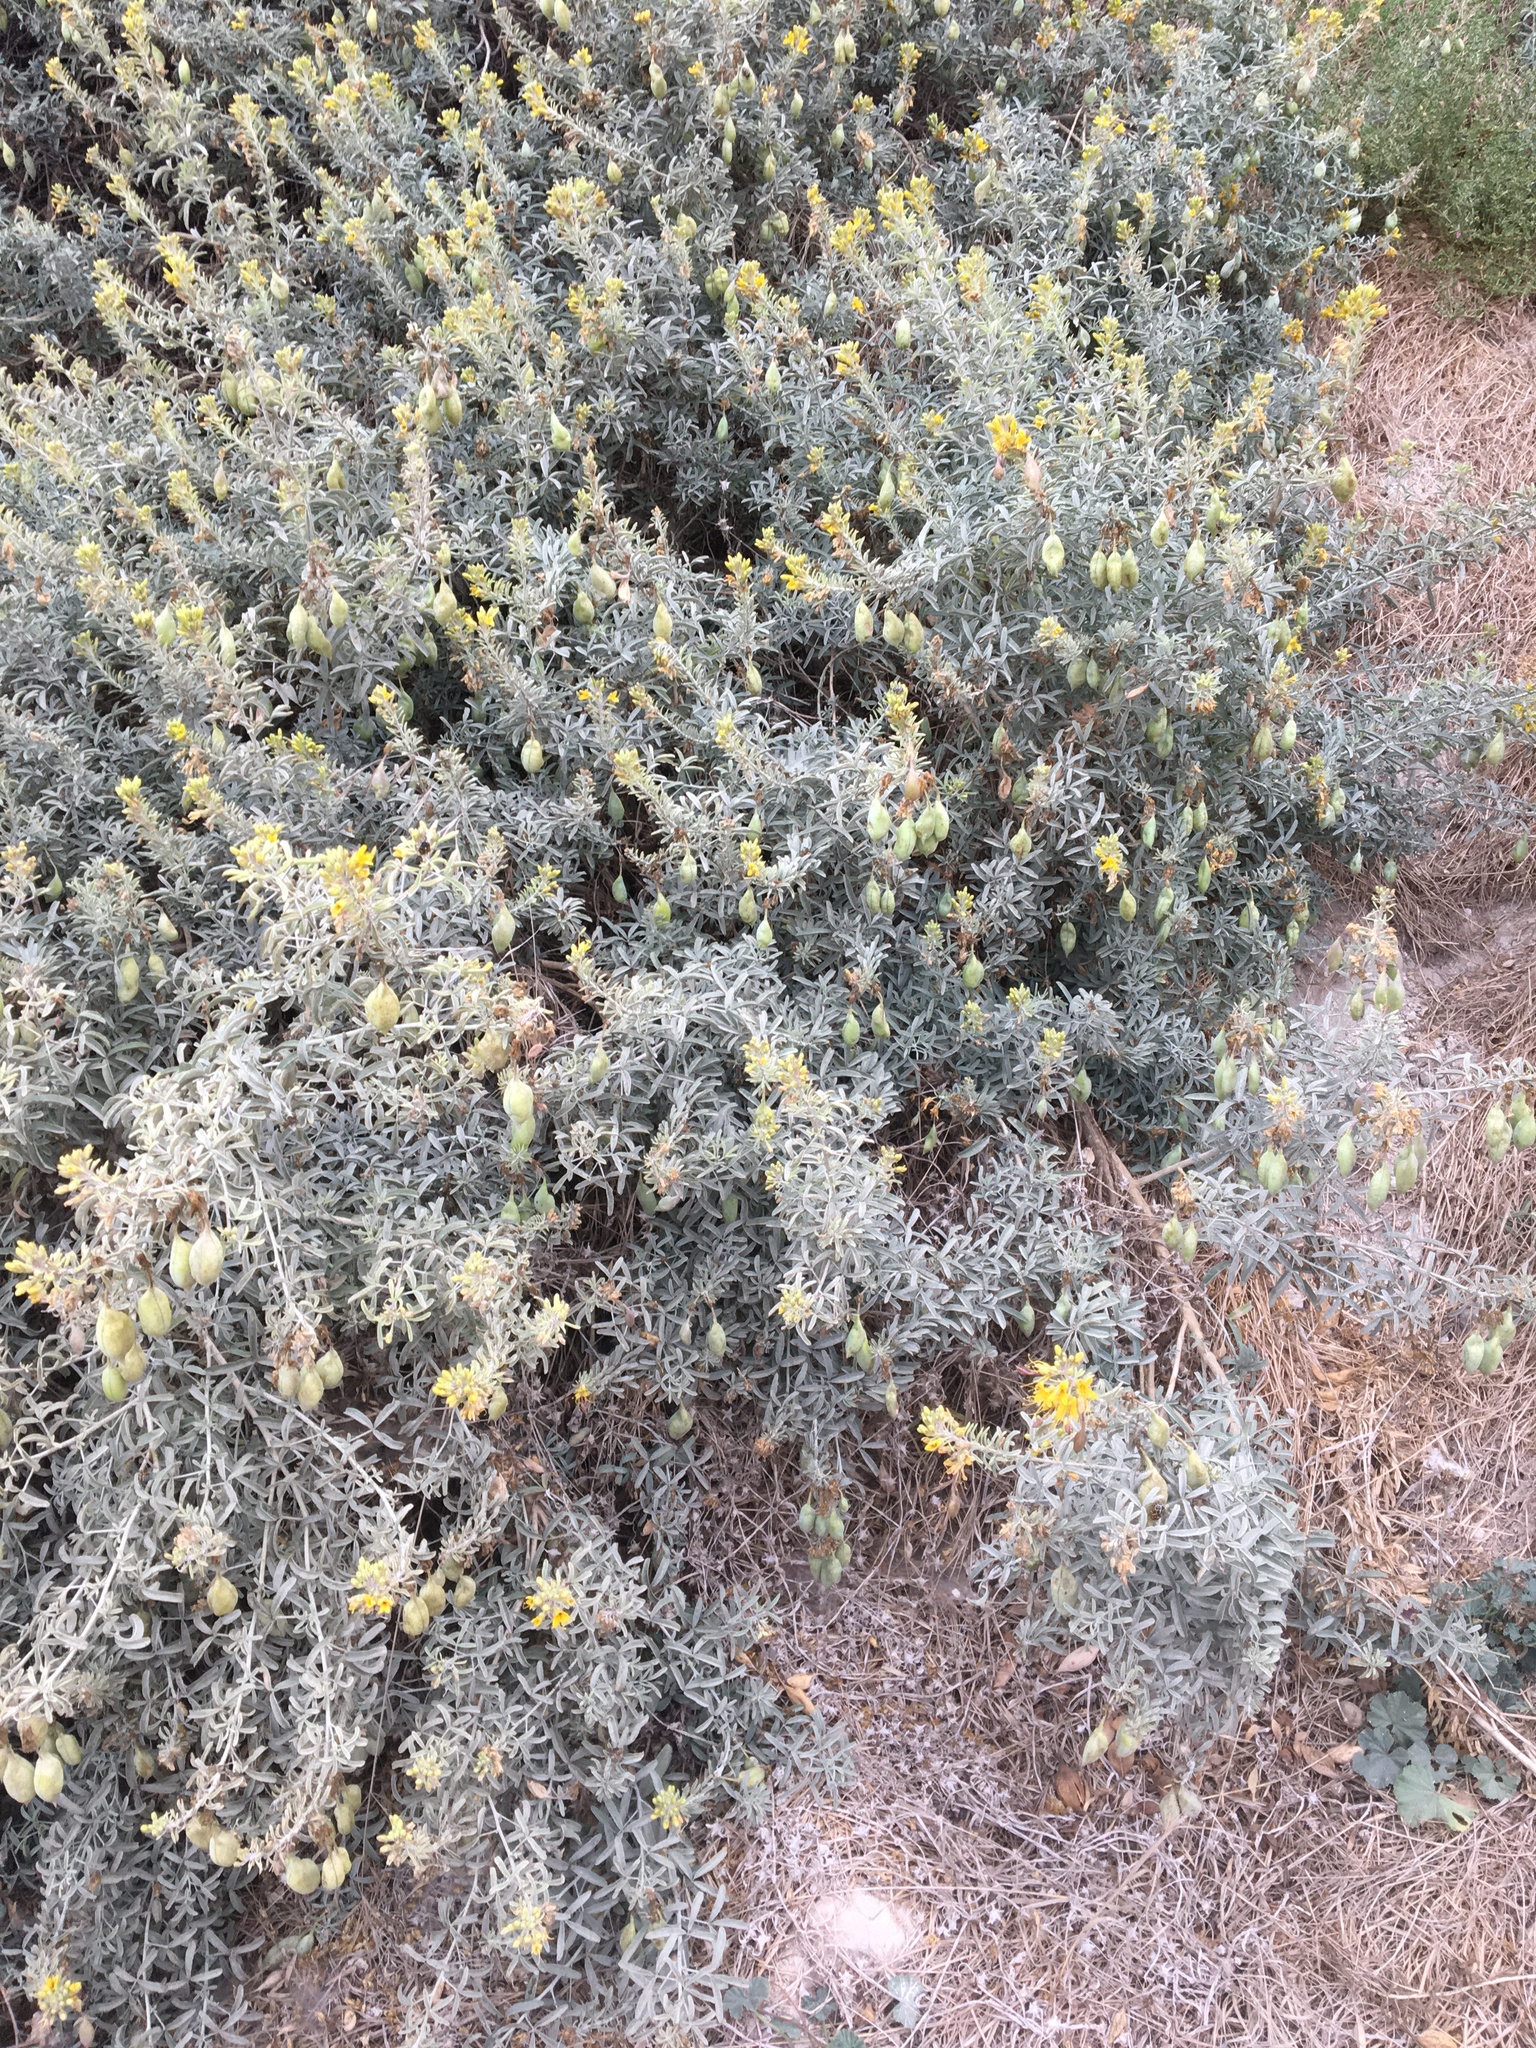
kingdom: Plantae
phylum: Tracheophyta
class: Magnoliopsida
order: Brassicales
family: Cleomaceae
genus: Cleomella
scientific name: Cleomella arborea
